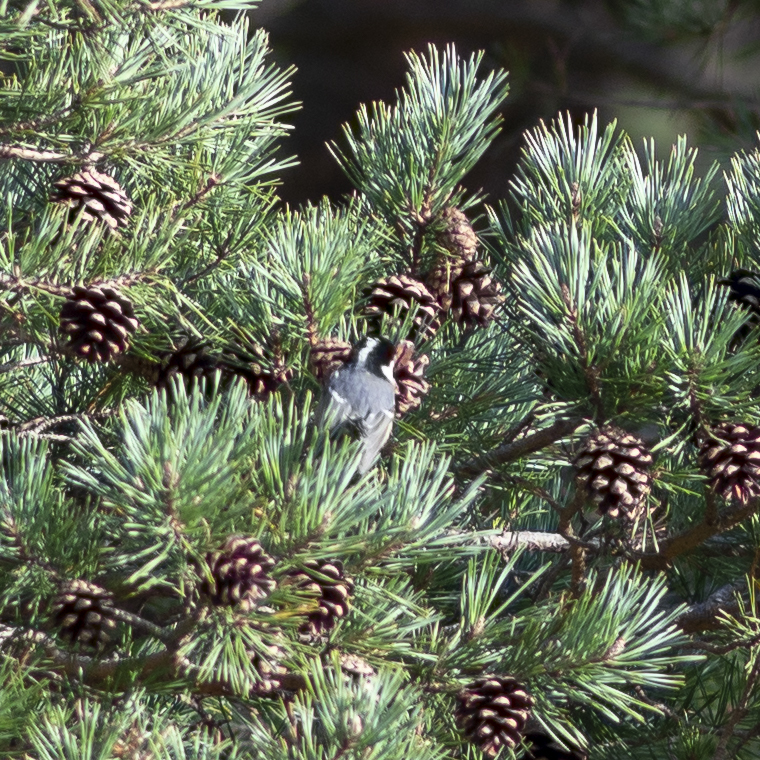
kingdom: Animalia
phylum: Chordata
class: Aves
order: Passeriformes
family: Paridae
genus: Periparus
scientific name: Periparus ater
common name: Coal tit
